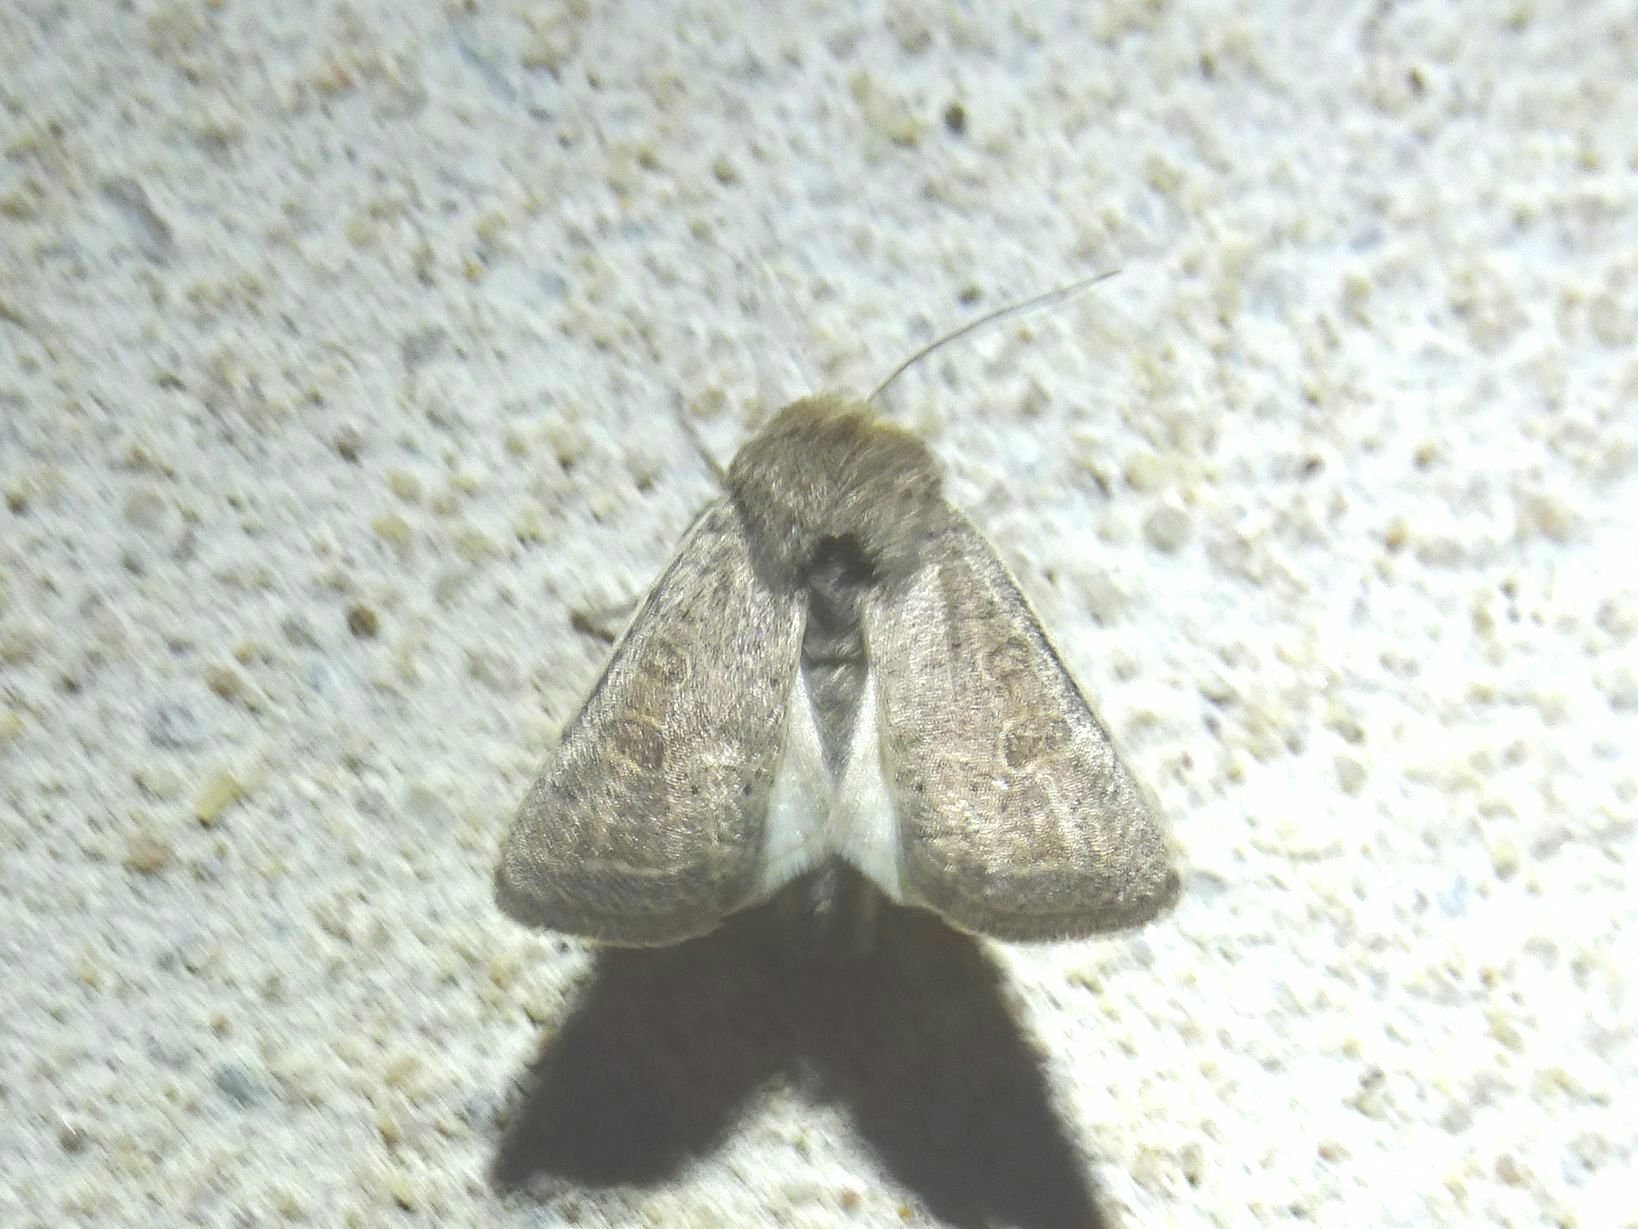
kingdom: Animalia
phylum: Arthropoda
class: Insecta
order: Lepidoptera
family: Noctuidae
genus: Hoplodrina
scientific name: Hoplodrina ambigua
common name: Vine's rustic
